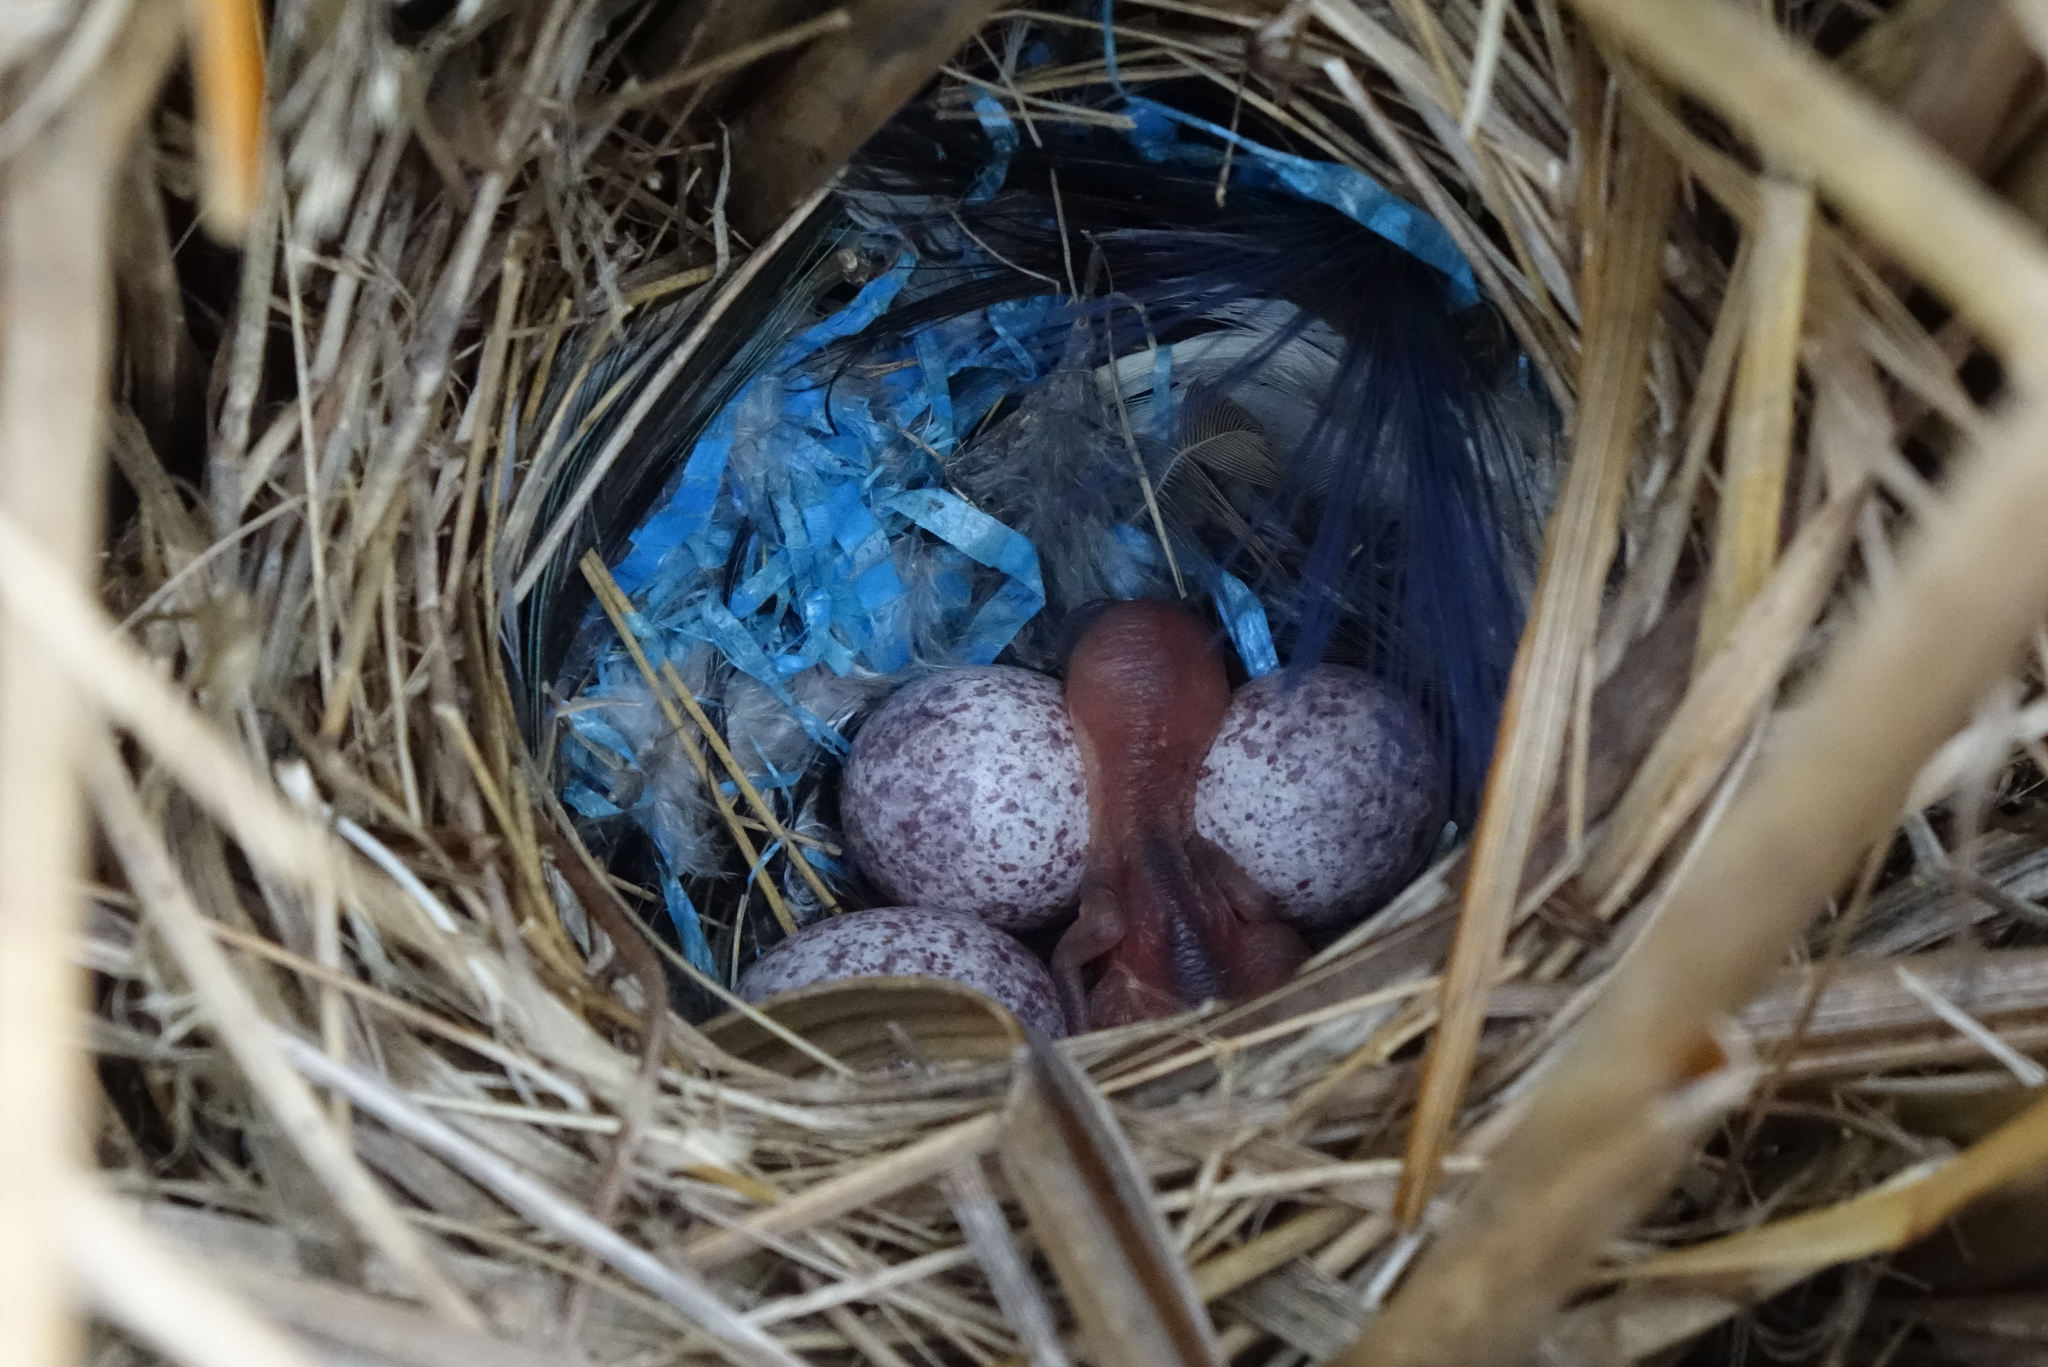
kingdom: Animalia
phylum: Chordata
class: Aves
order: Passeriformes
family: Locustellidae
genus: Poodytes
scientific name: Poodytes punctatus
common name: New zealand fernbird
